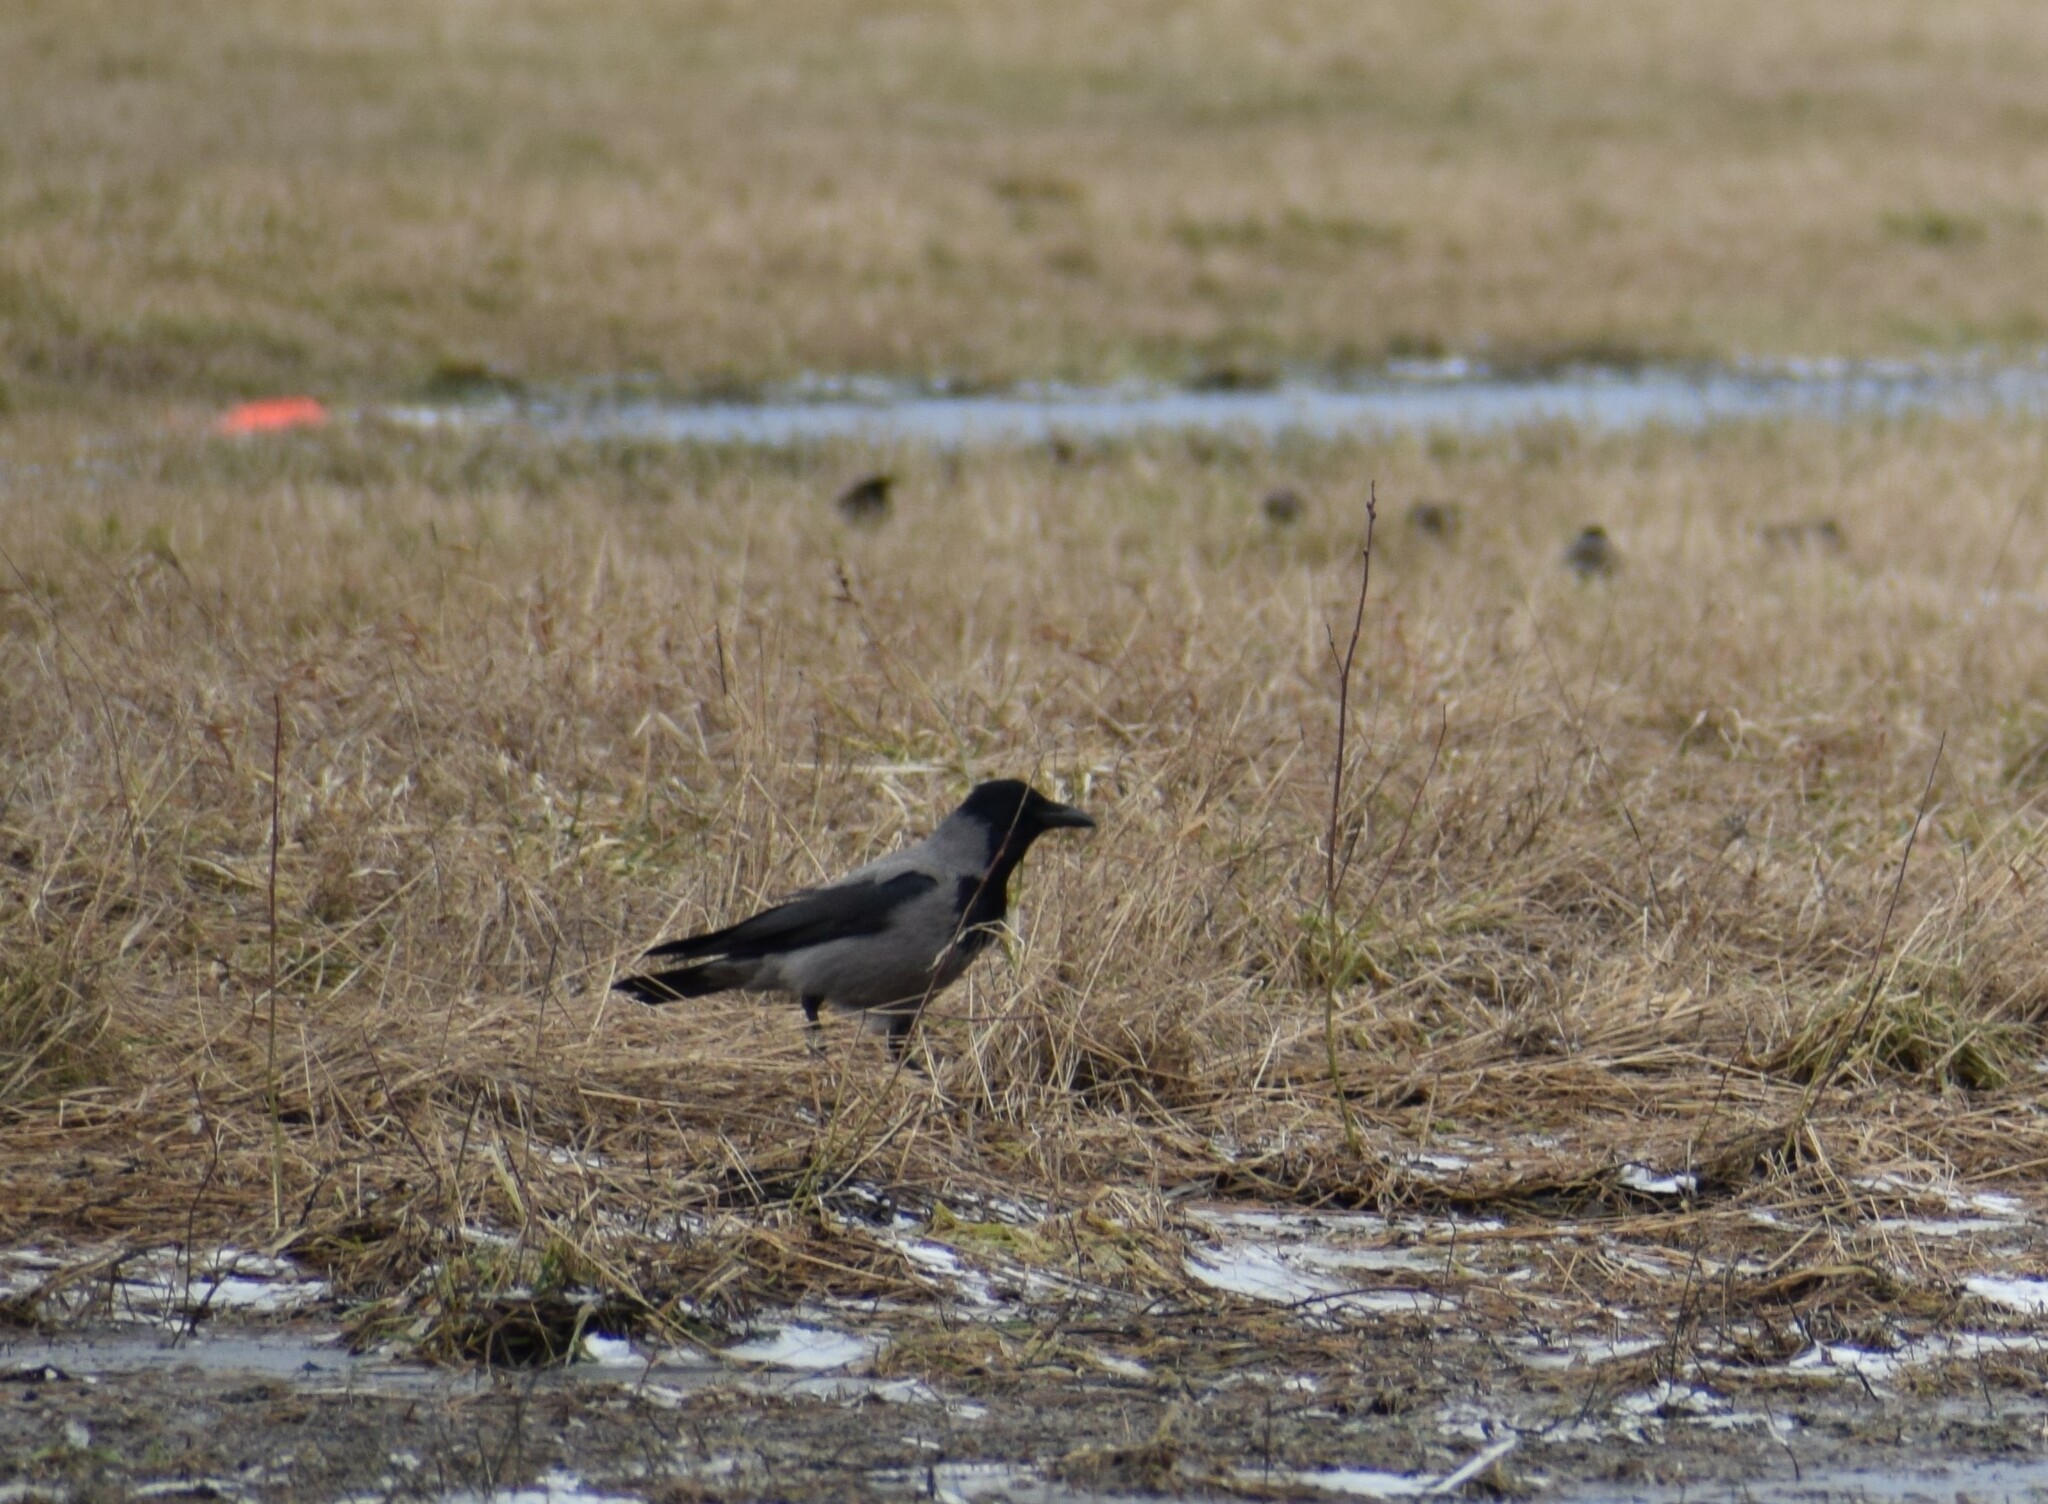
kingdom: Animalia
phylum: Chordata
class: Aves
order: Passeriformes
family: Corvidae
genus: Corvus
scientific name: Corvus cornix
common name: Hooded crow
